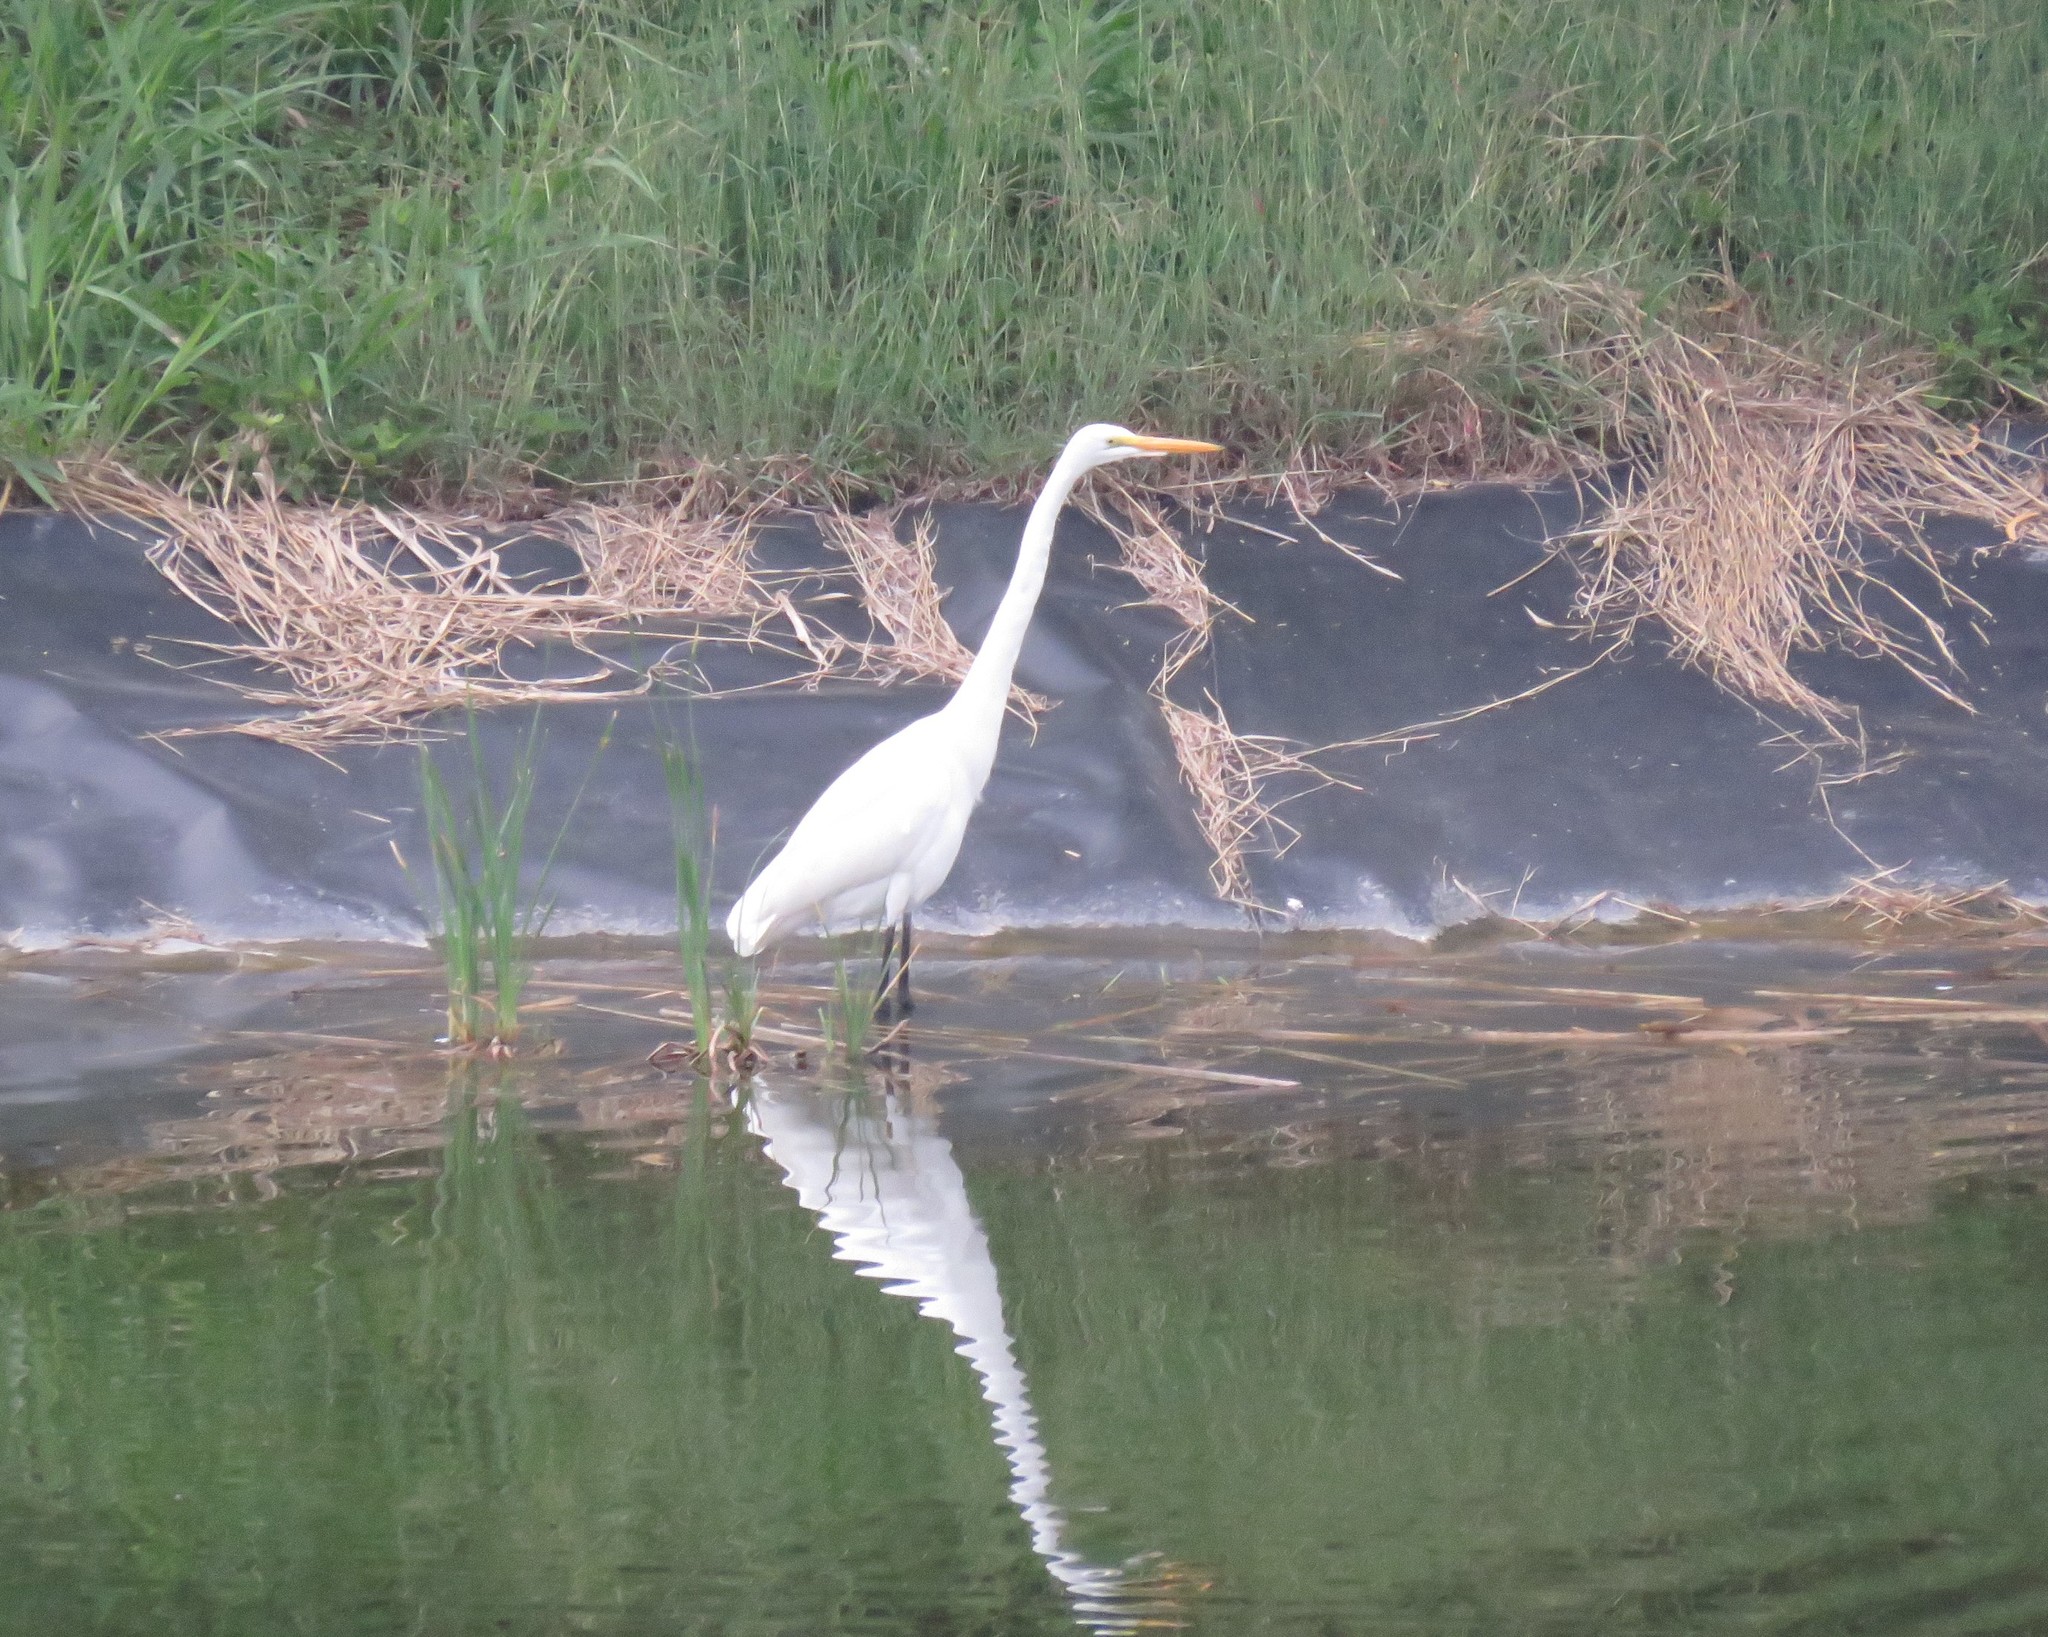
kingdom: Animalia
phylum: Chordata
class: Aves
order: Pelecaniformes
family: Ardeidae
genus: Ardea
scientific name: Ardea alba
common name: Great egret
